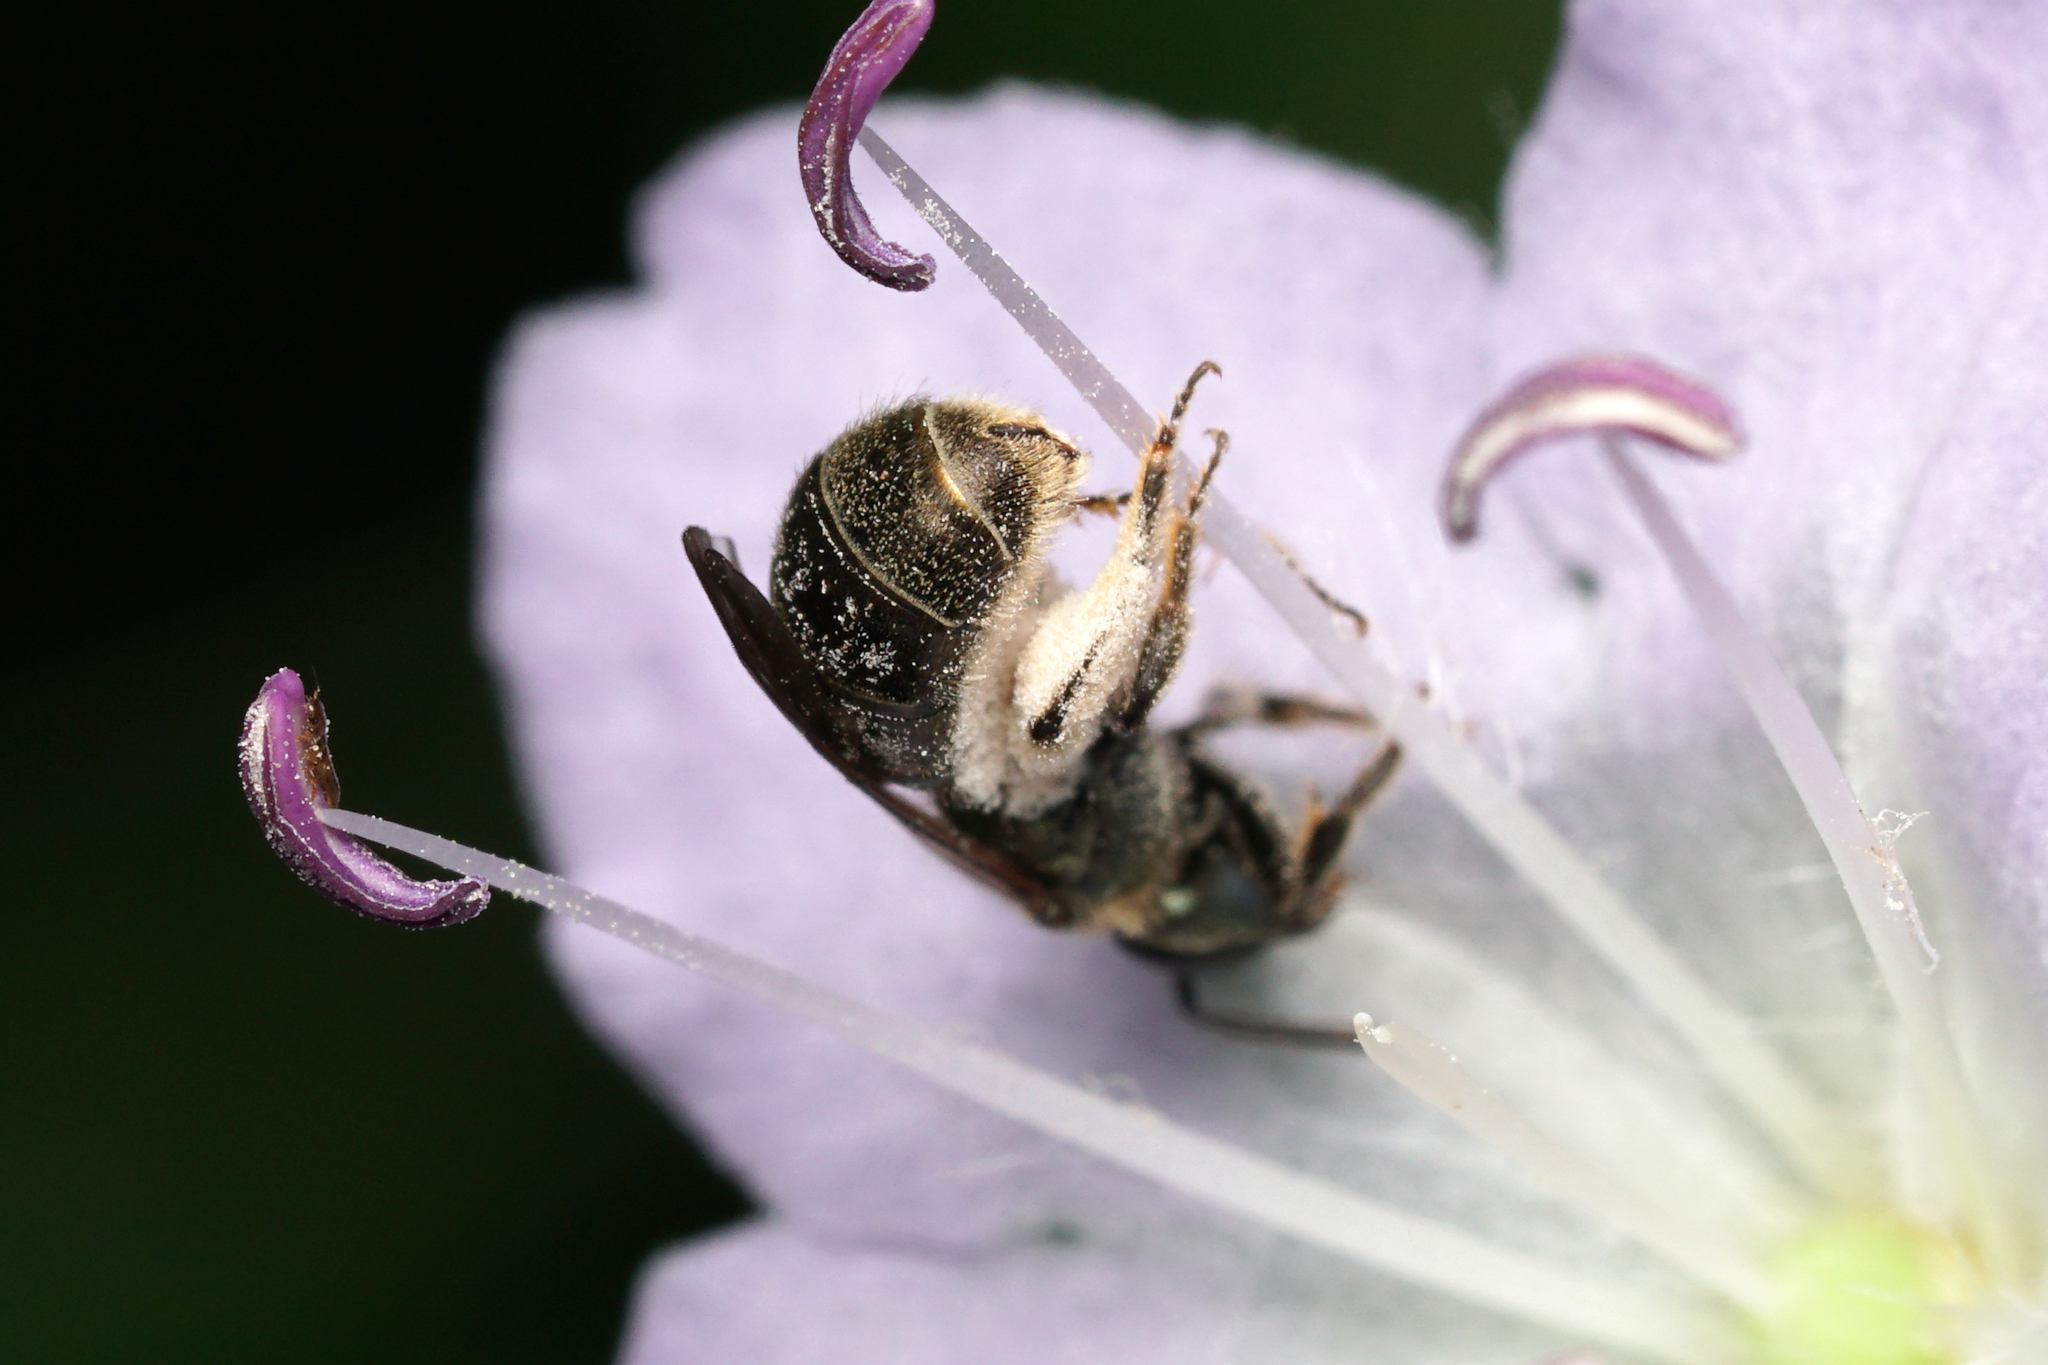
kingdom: Animalia
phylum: Arthropoda
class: Insecta
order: Hymenoptera
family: Halictidae
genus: Dialictus
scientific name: Dialictus
